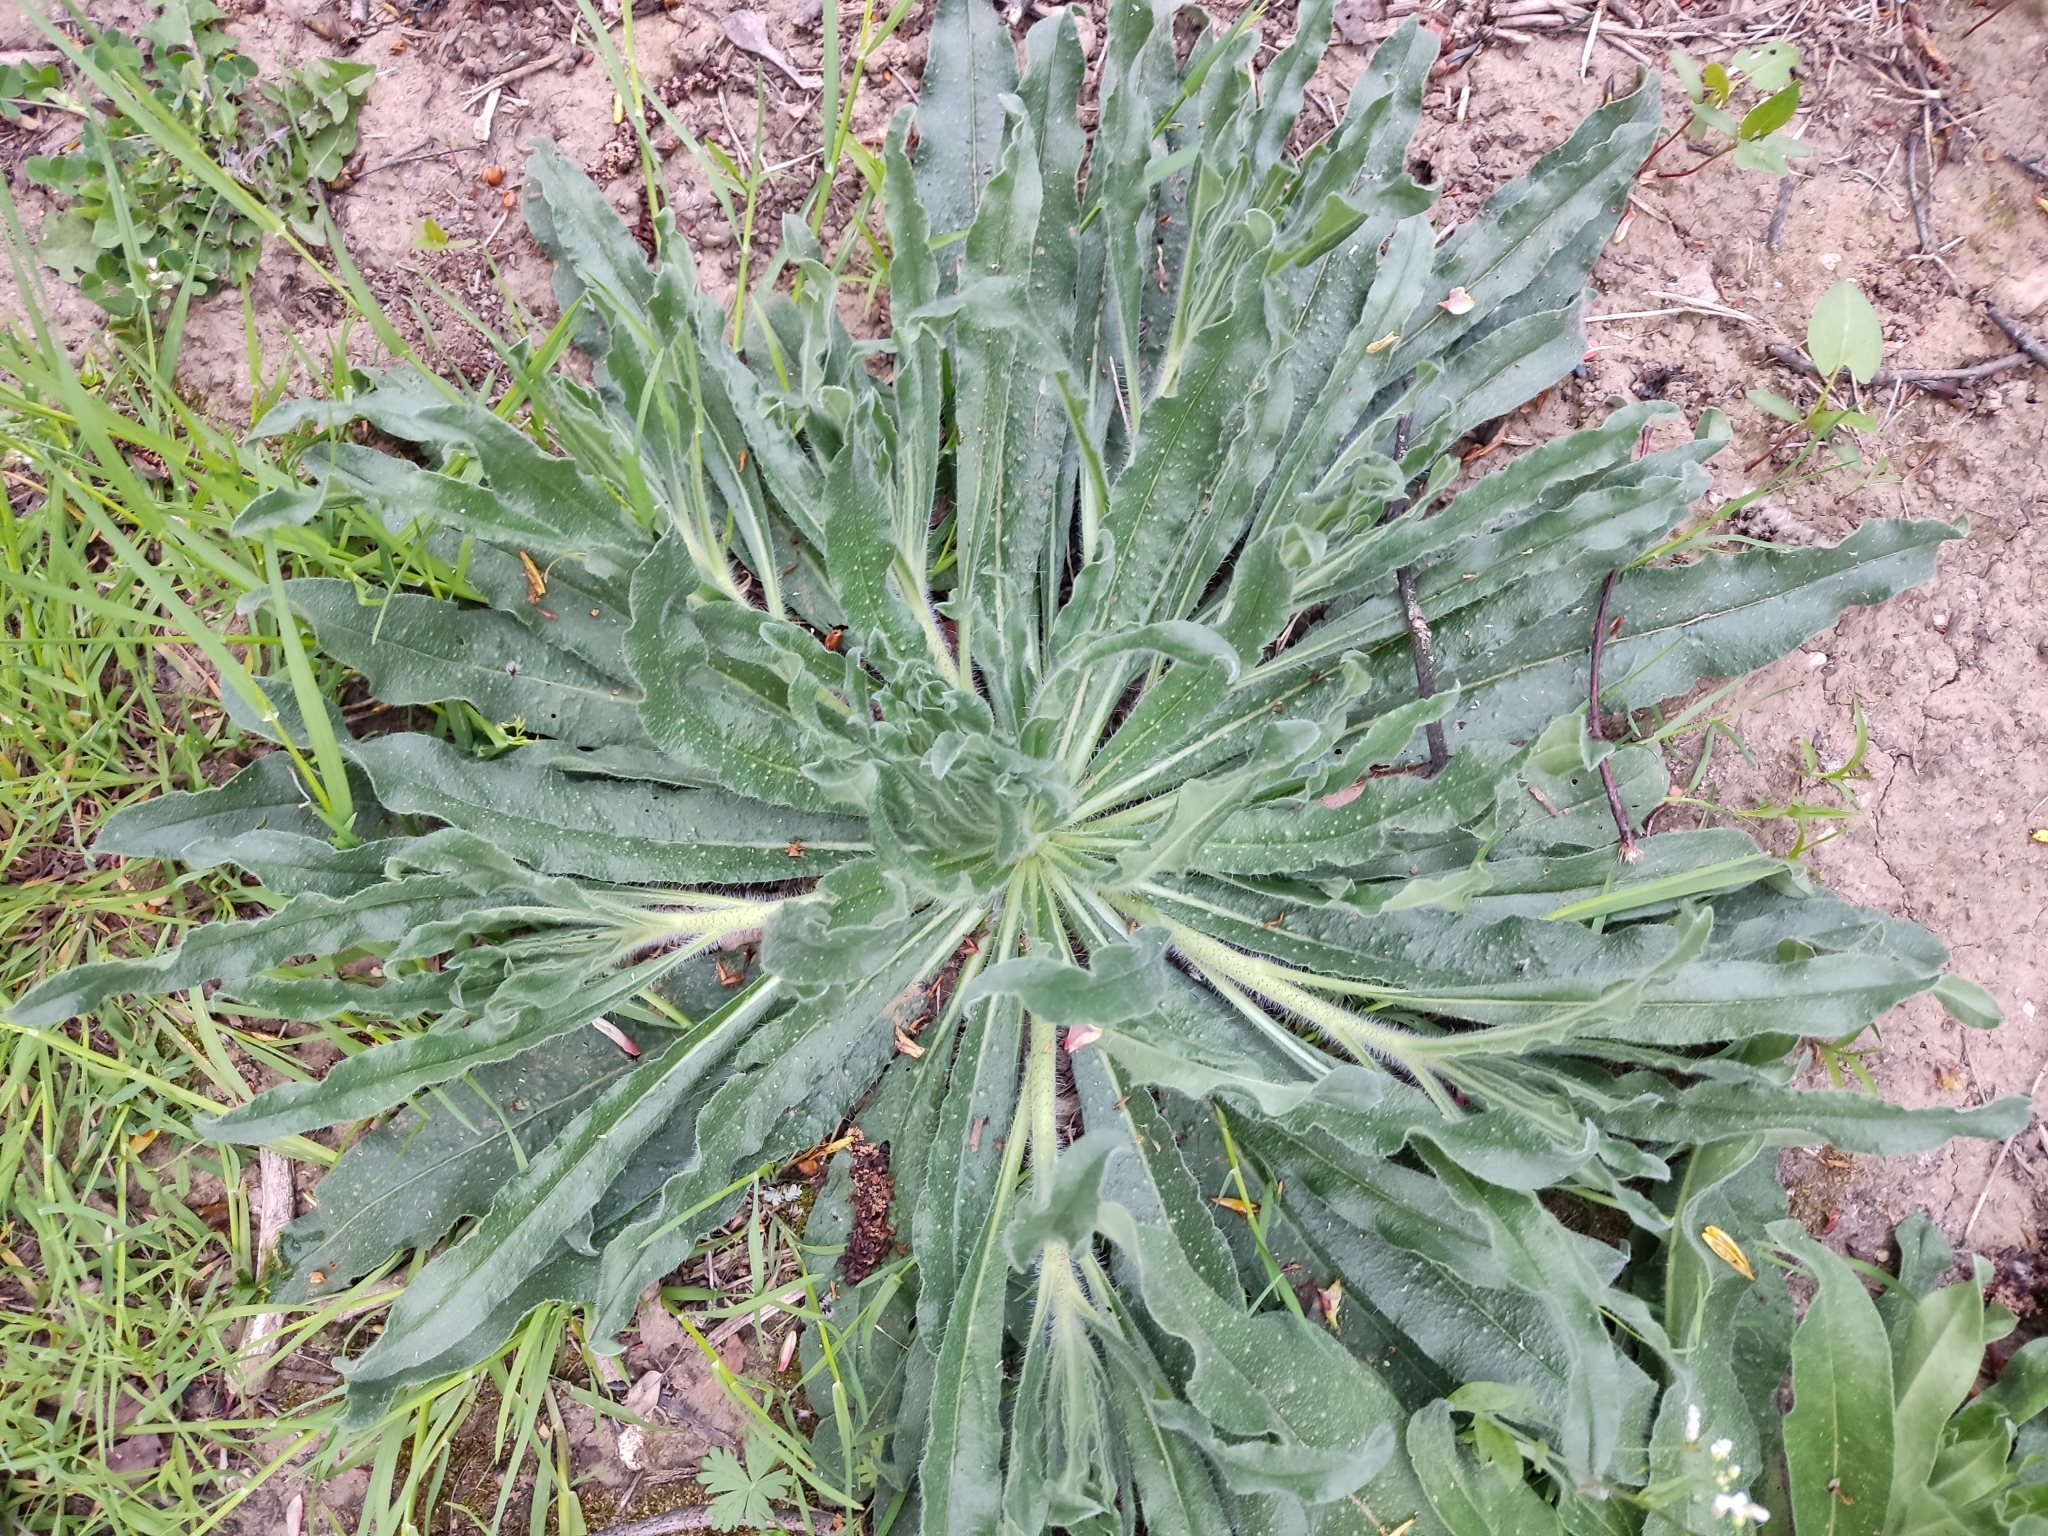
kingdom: Plantae
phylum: Tracheophyta
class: Magnoliopsida
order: Boraginales
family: Boraginaceae
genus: Echium
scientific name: Echium vulgare
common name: Common viper's bugloss
